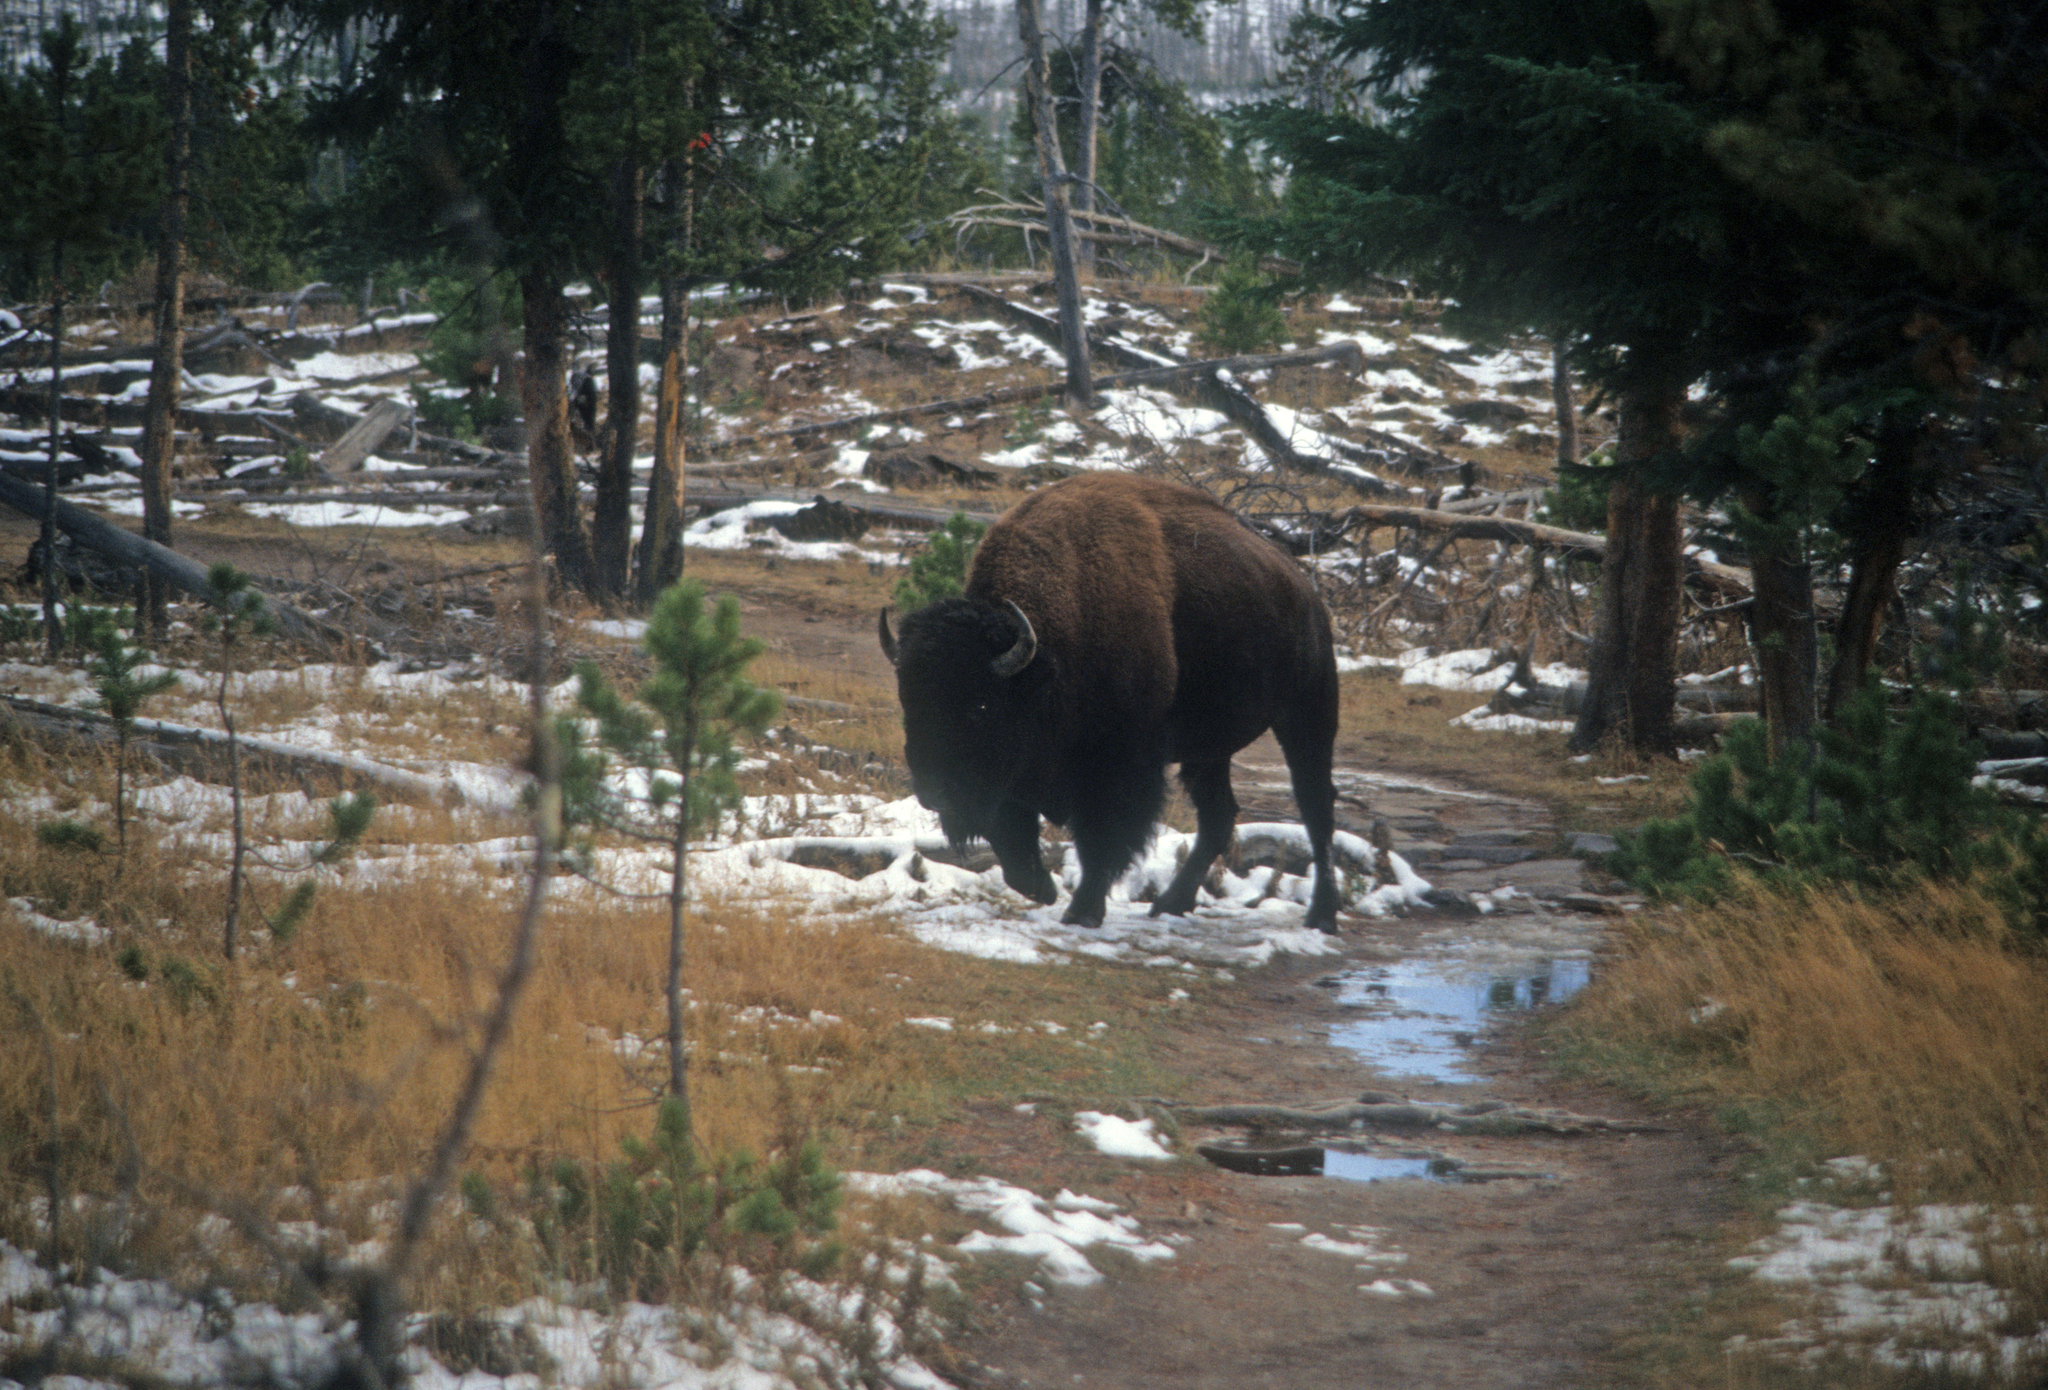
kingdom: Animalia
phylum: Chordata
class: Mammalia
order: Artiodactyla
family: Bovidae
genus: Bison
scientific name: Bison bison
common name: American bison
